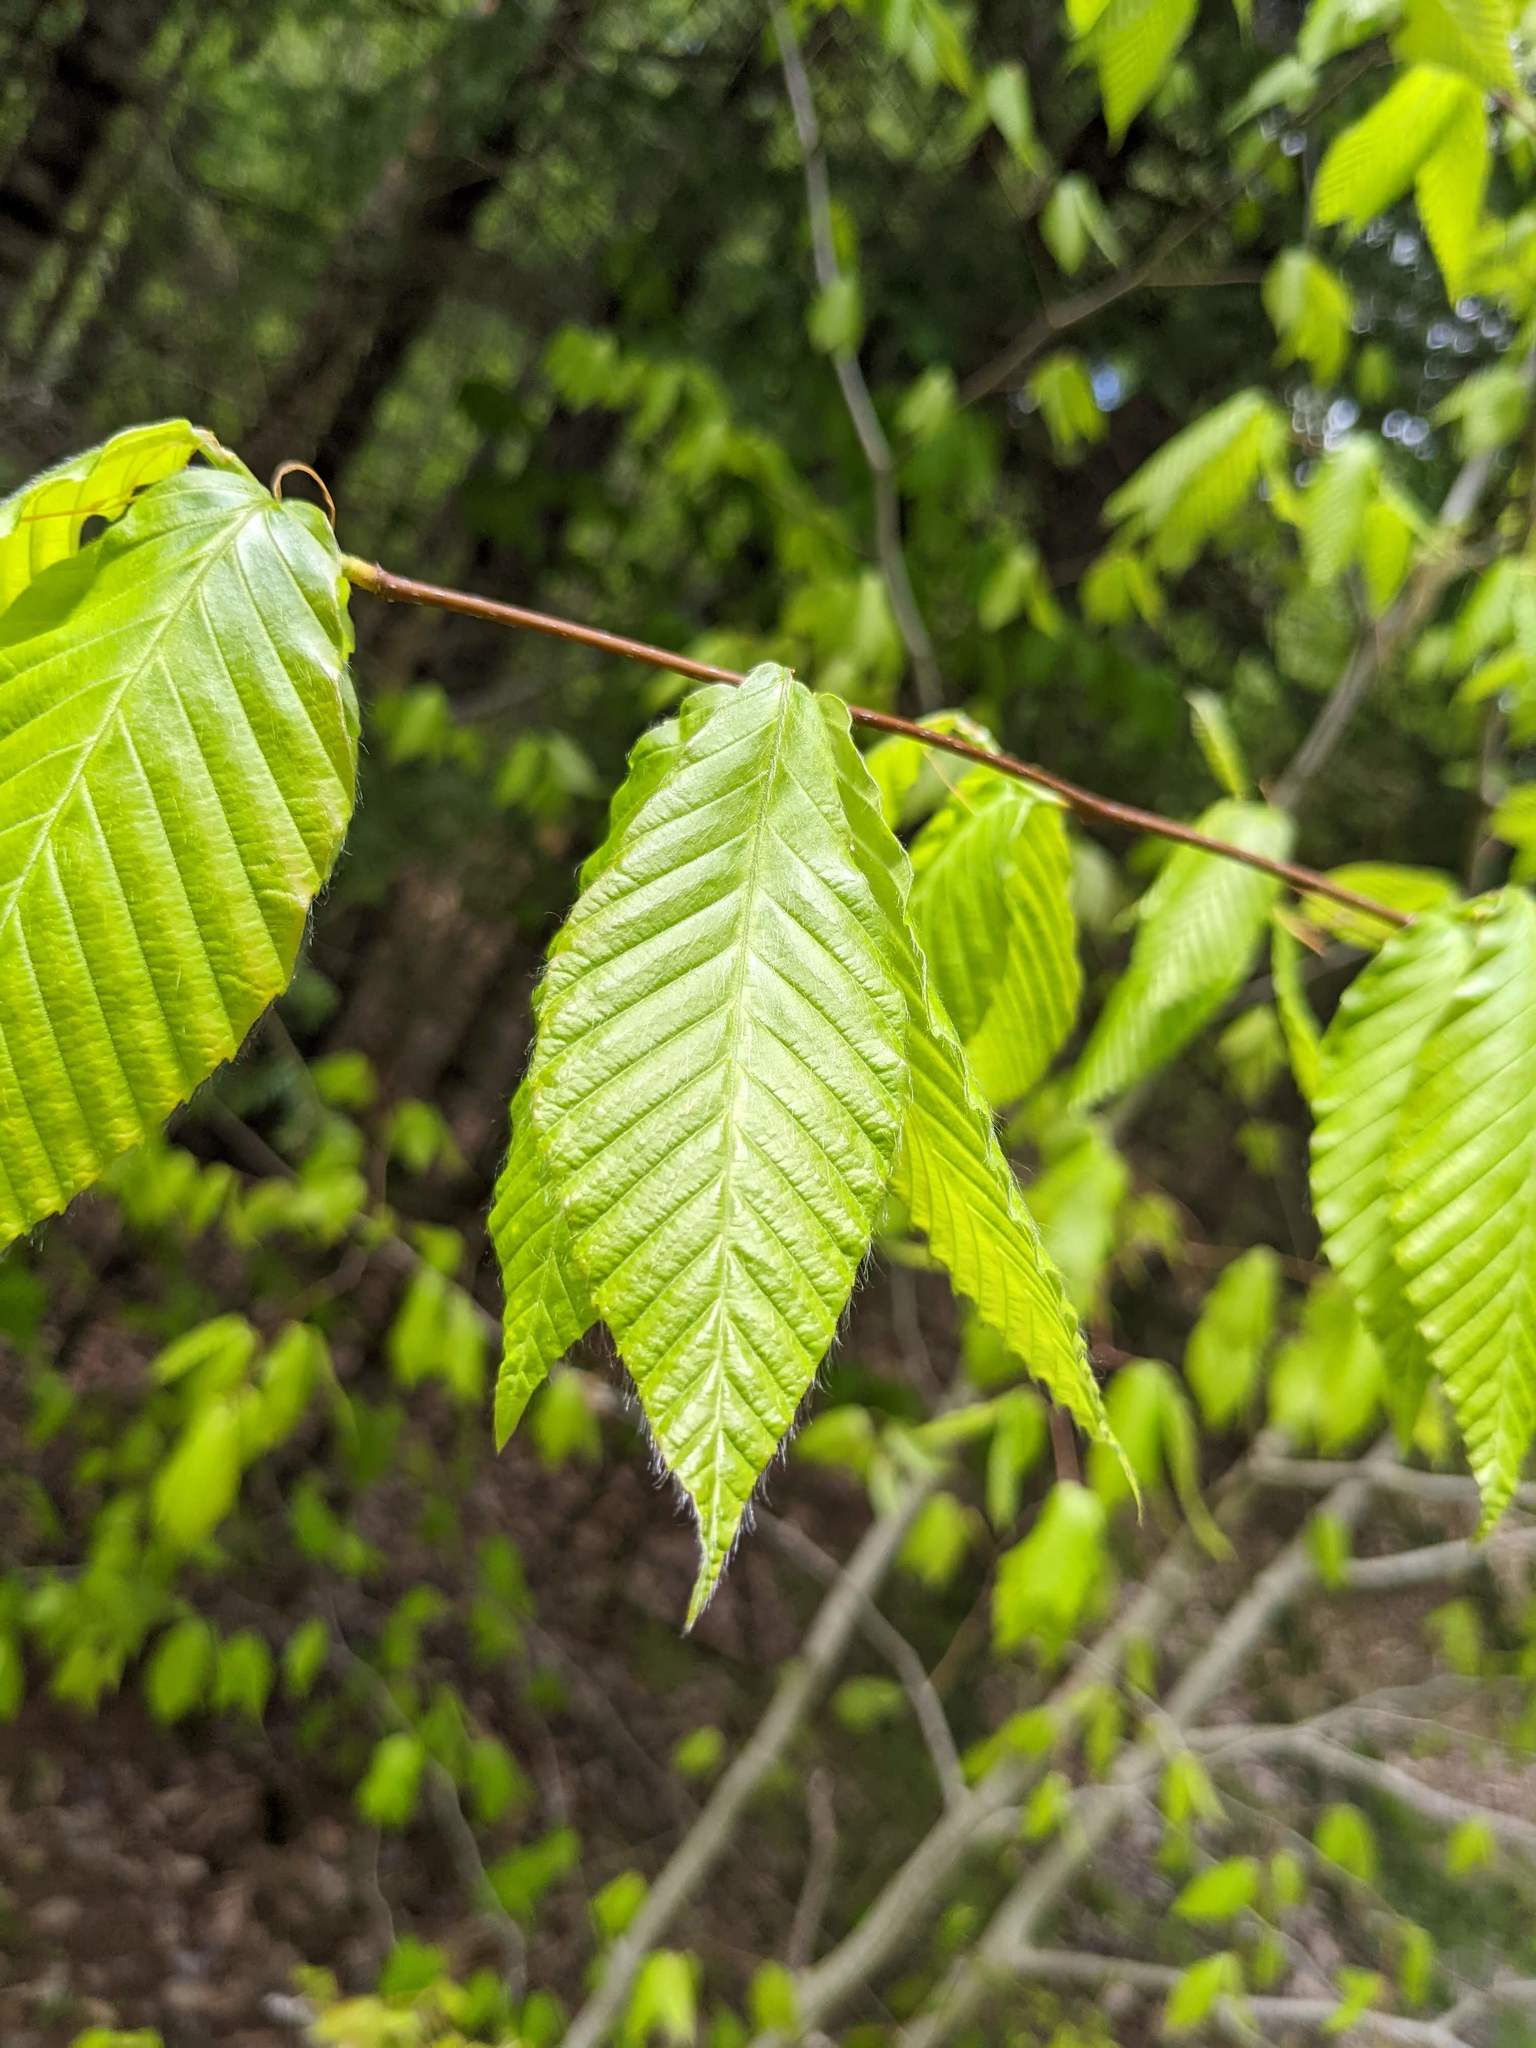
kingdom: Plantae
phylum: Tracheophyta
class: Magnoliopsida
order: Fagales
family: Fagaceae
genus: Fagus
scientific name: Fagus grandifolia
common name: American beech
